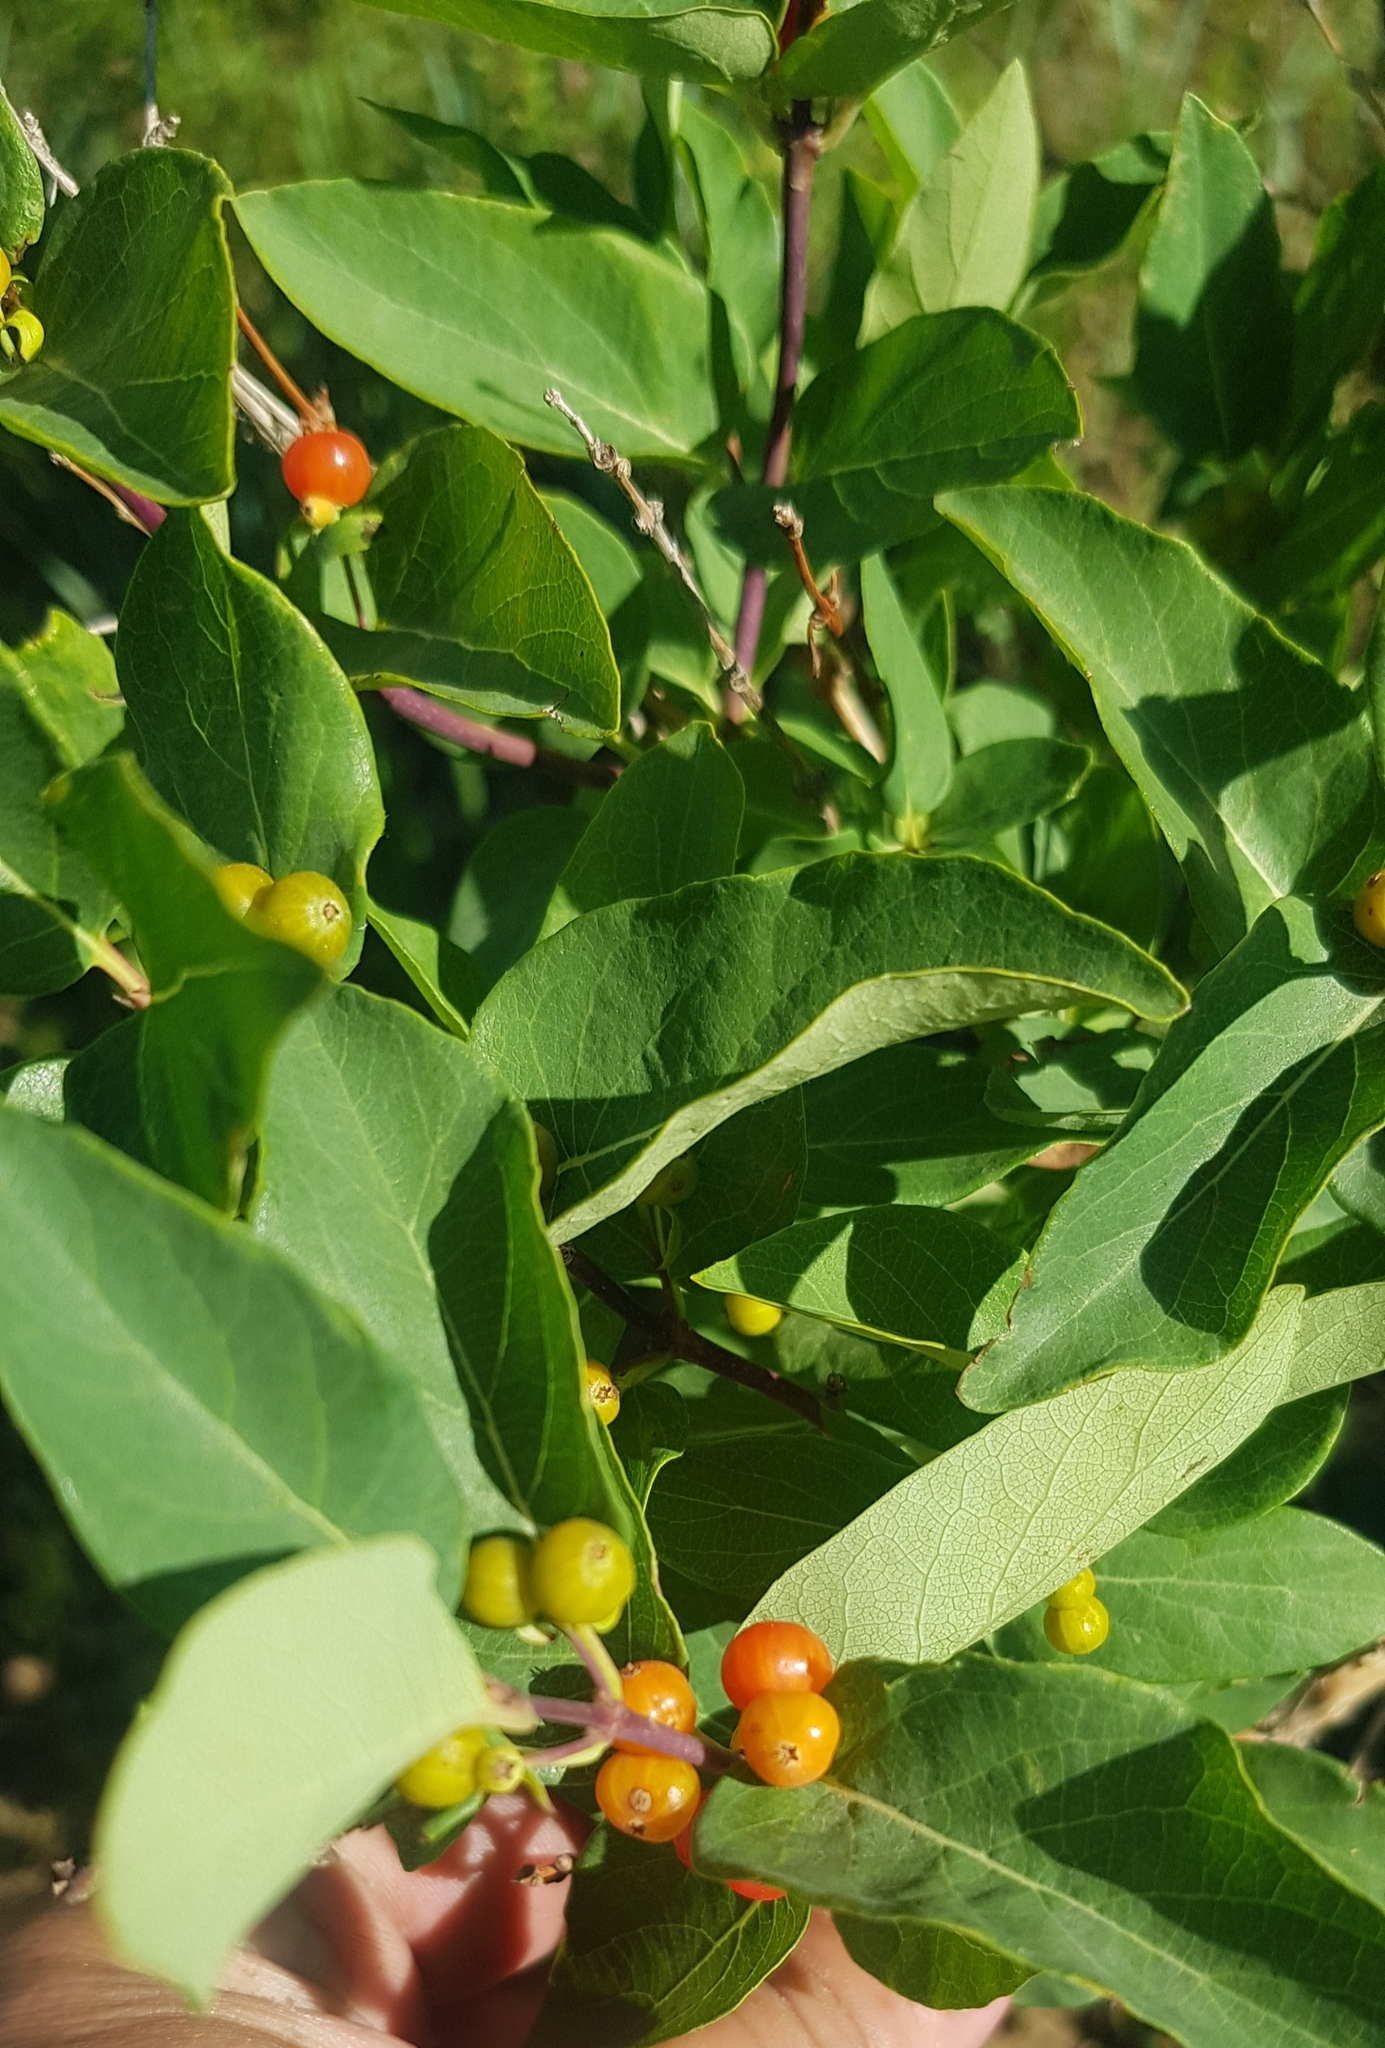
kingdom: Plantae
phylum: Tracheophyta
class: Magnoliopsida
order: Dipsacales
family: Caprifoliaceae
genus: Lonicera
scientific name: Lonicera tatarica
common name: Tatarian honeysuckle
